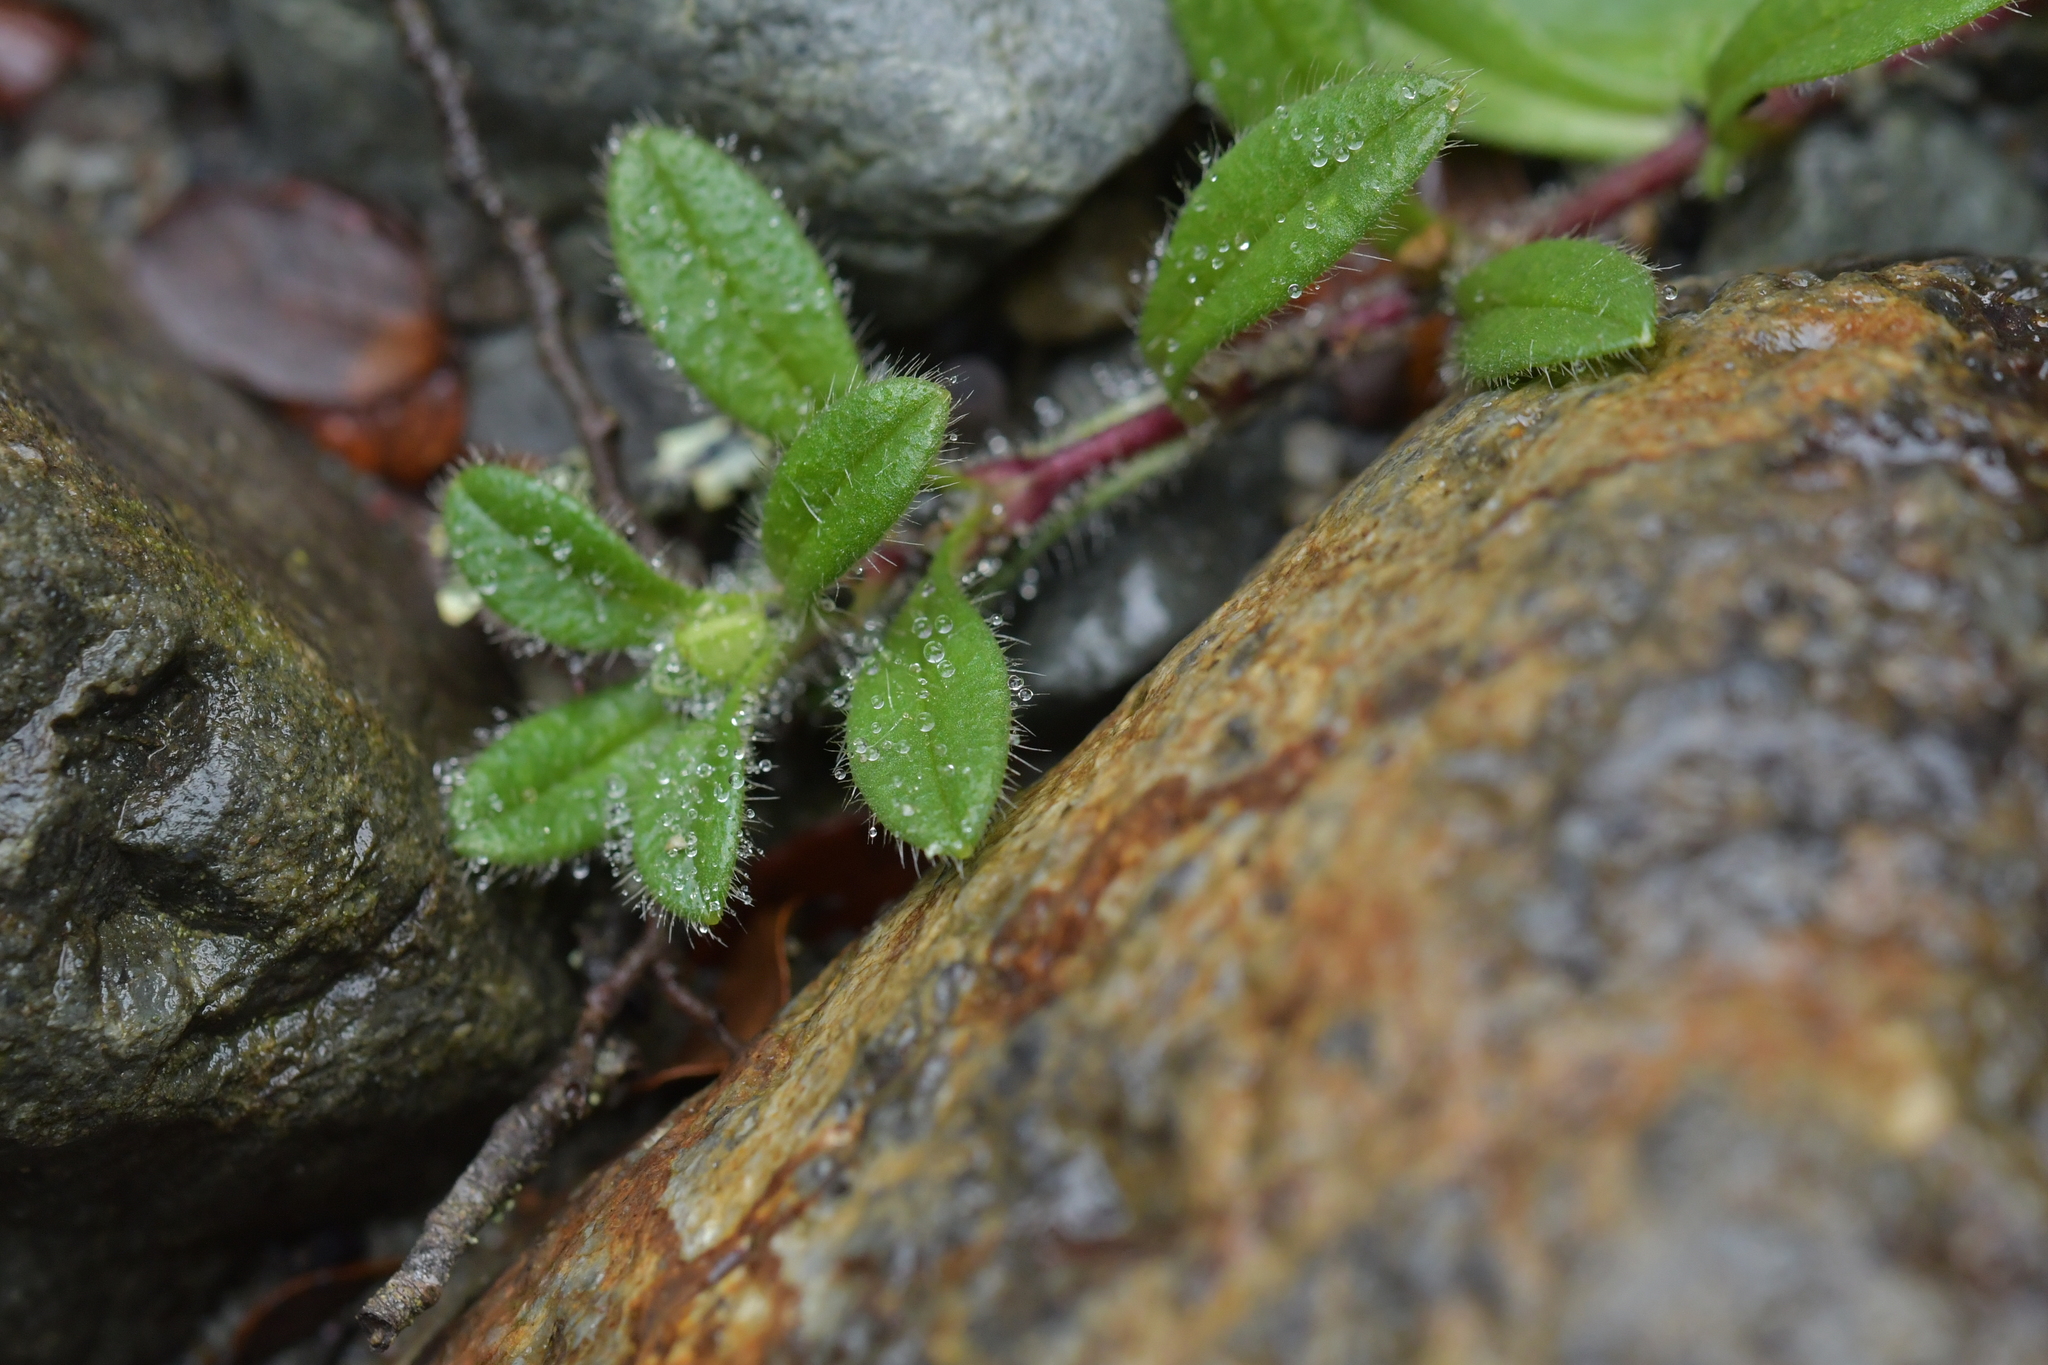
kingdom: Plantae
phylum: Tracheophyta
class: Magnoliopsida
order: Caryophyllales
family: Caryophyllaceae
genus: Cerastium
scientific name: Cerastium fontanum
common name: Common mouse-ear
